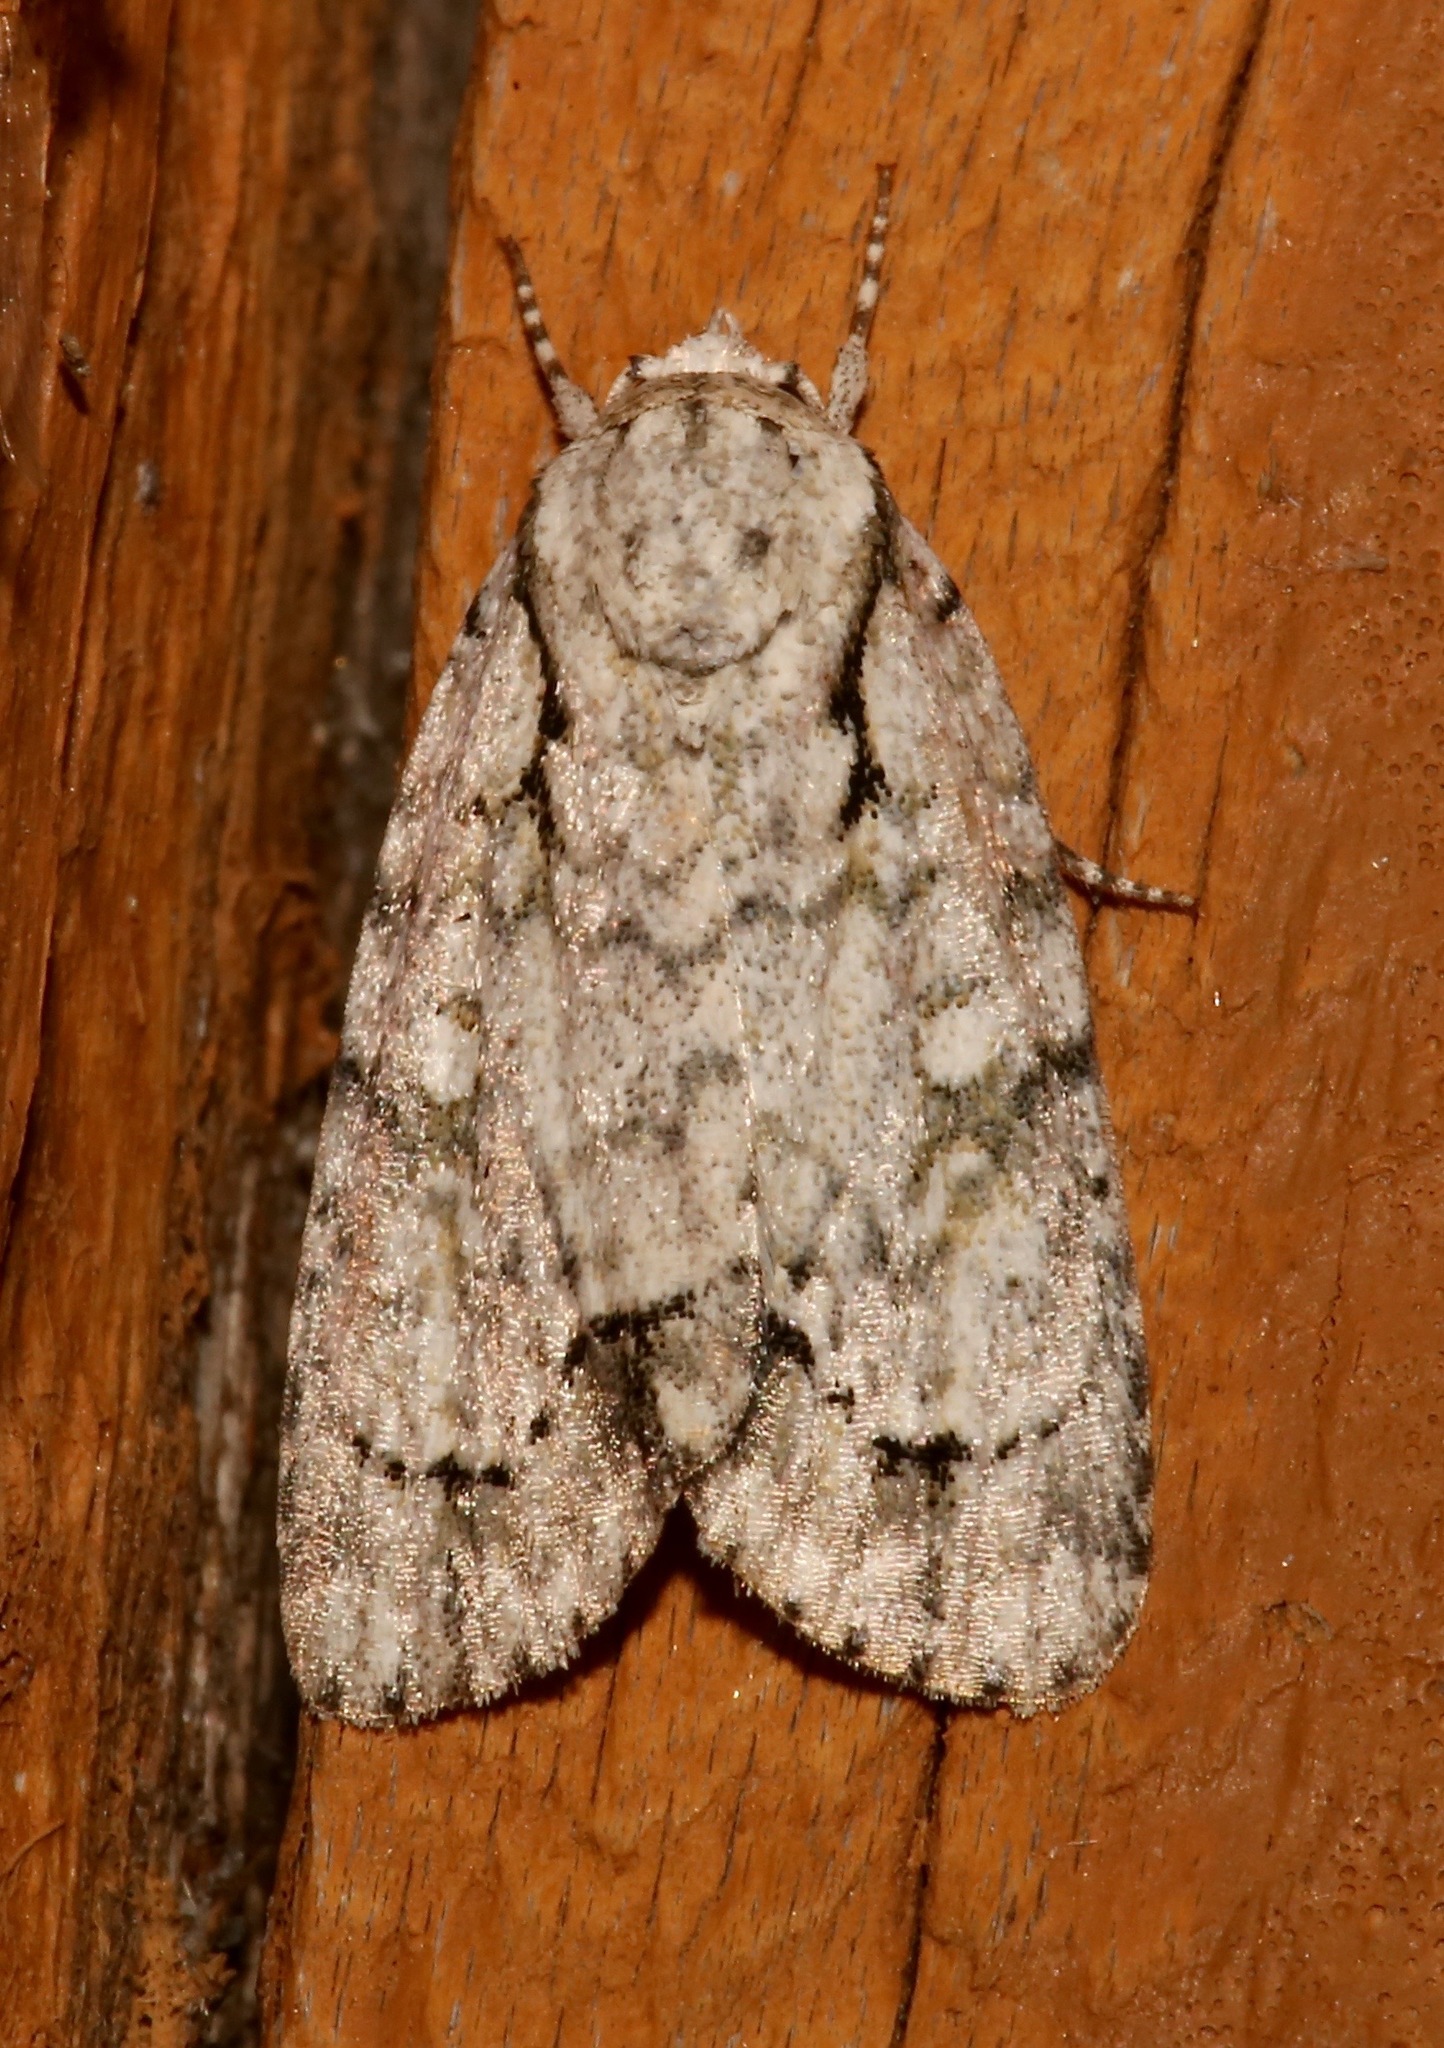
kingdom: Animalia
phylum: Arthropoda
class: Insecta
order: Lepidoptera
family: Noctuidae
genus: Acronicta
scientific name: Acronicta vinnula
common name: Delightful dagger
